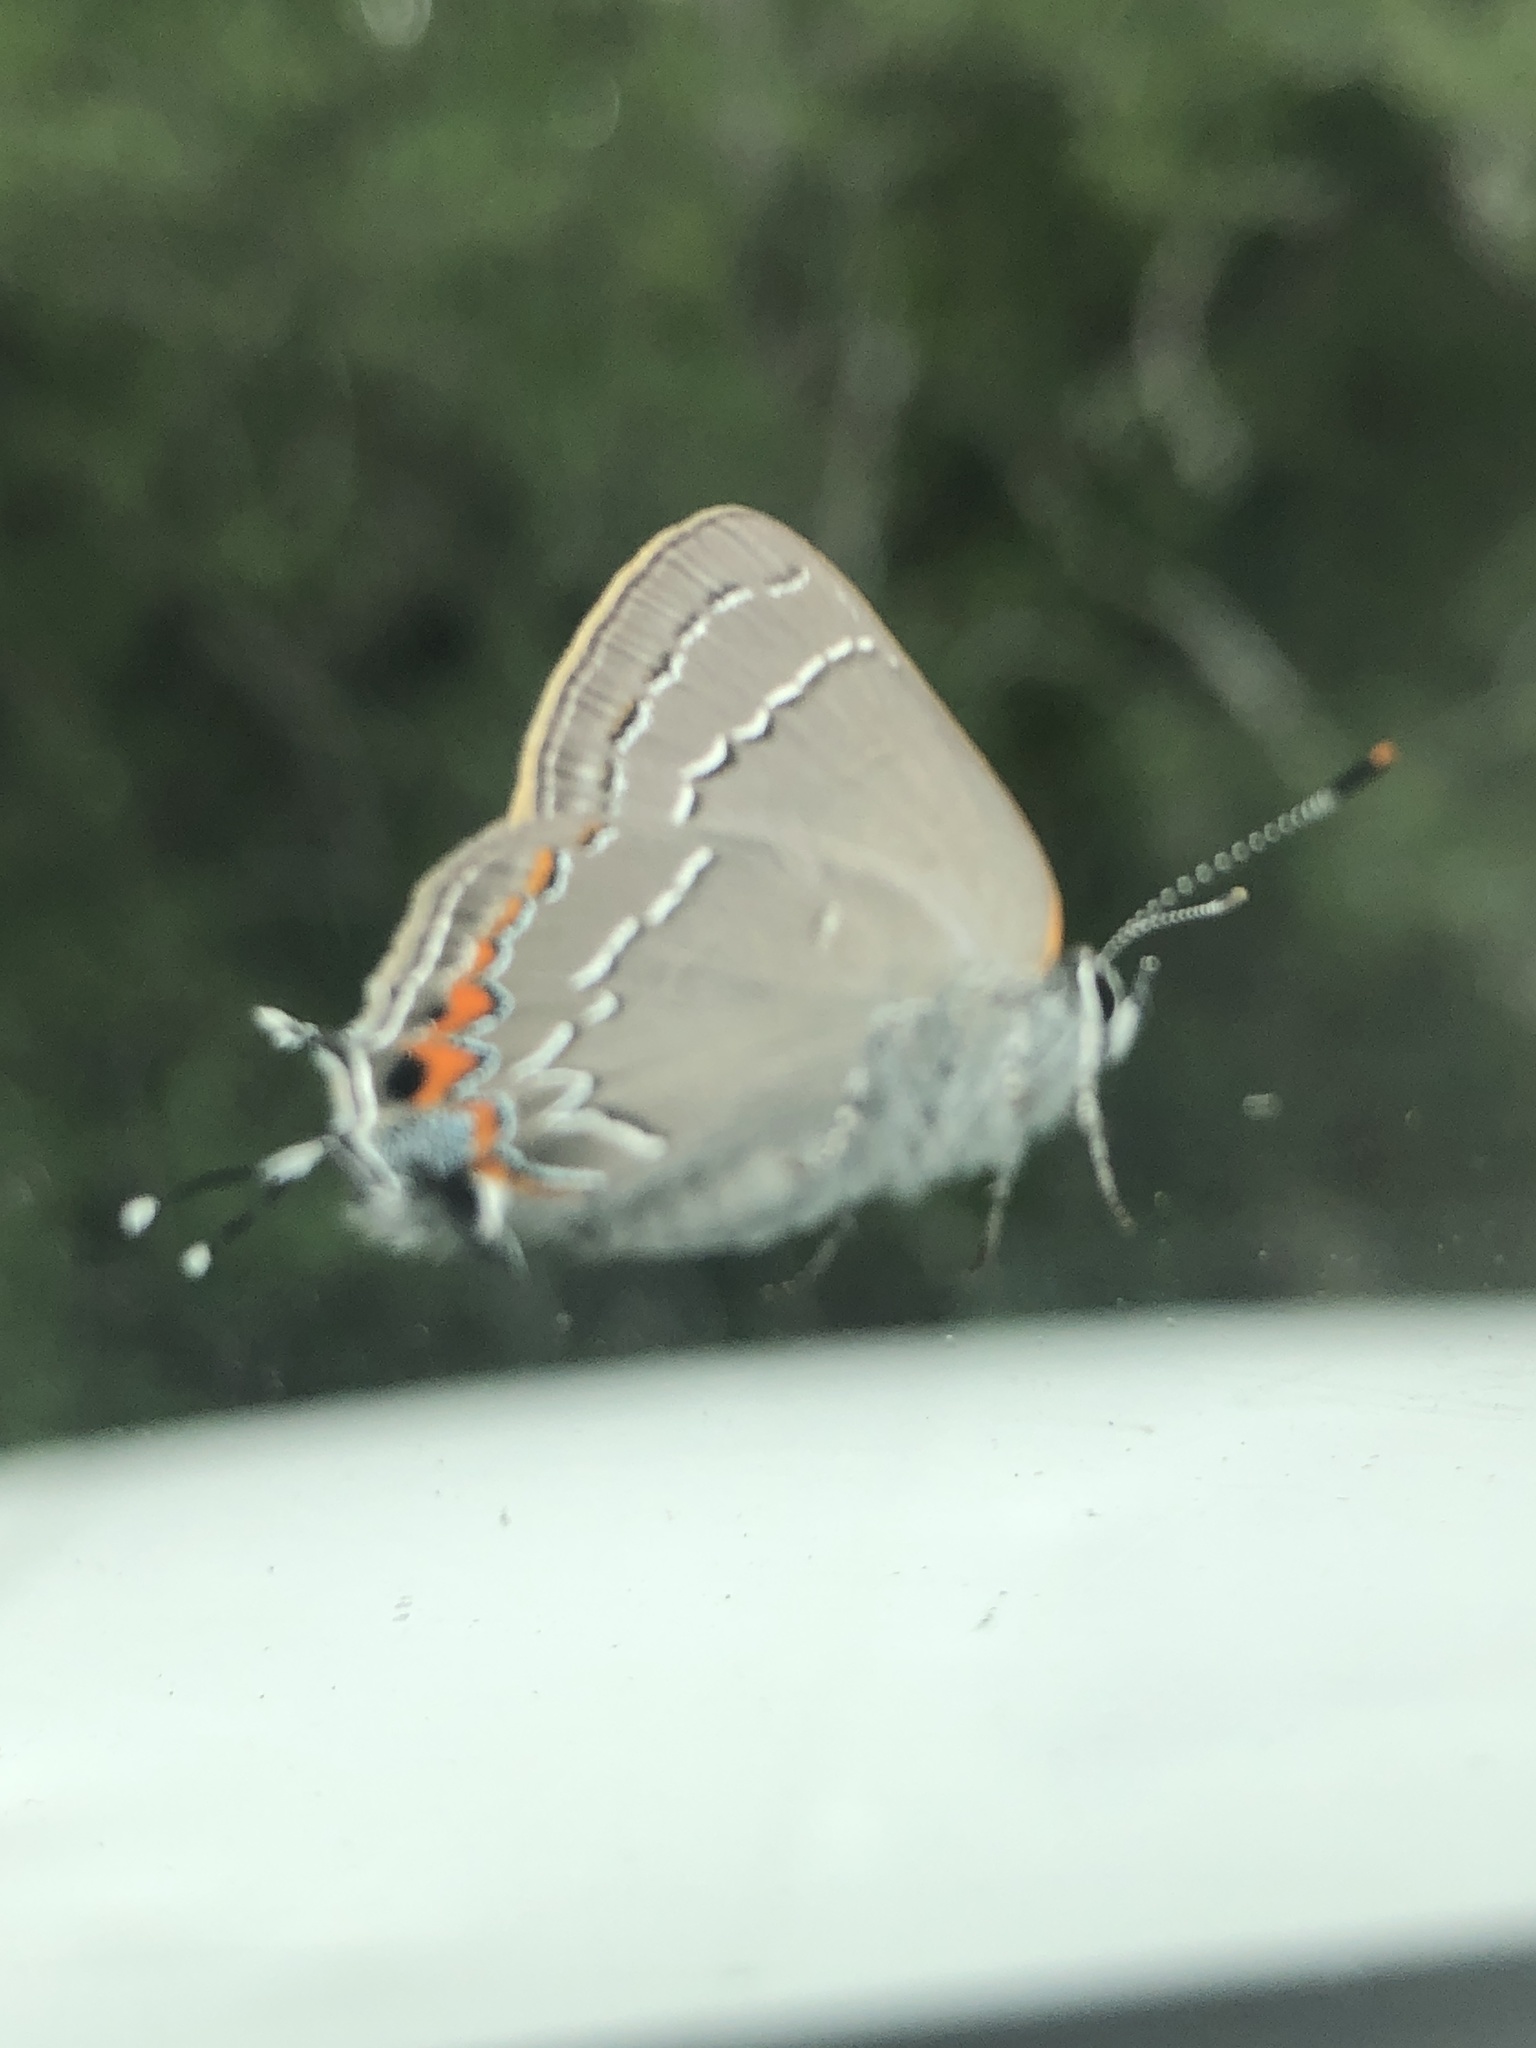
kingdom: Animalia
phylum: Arthropoda
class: Insecta
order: Lepidoptera
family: Lycaenidae
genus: Fixsenia
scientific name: Fixsenia favonius
